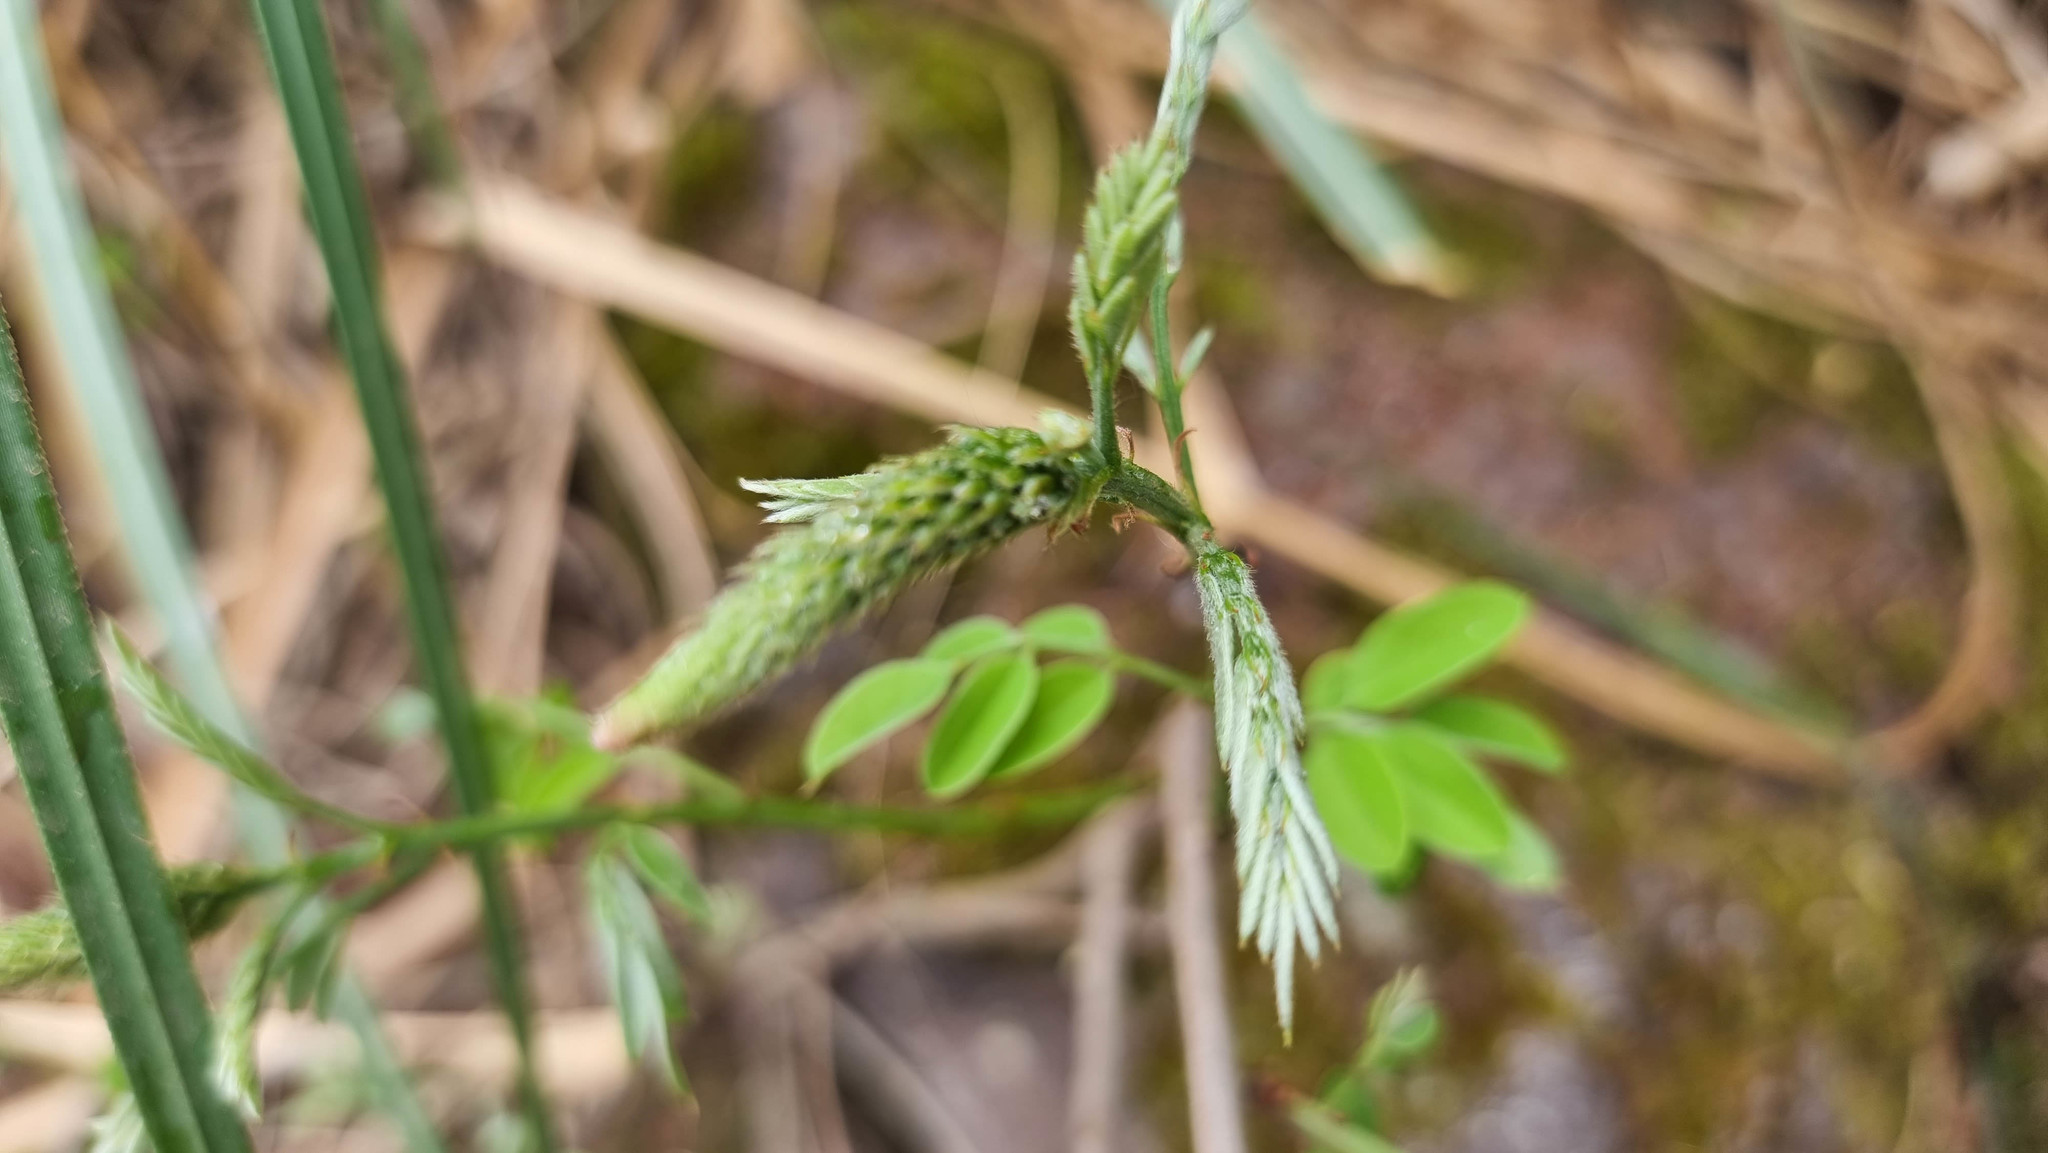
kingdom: Plantae
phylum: Tracheophyta
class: Magnoliopsida
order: Fabales
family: Fabaceae
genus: Amorpha
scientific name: Amorpha fruticosa
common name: False indigo
